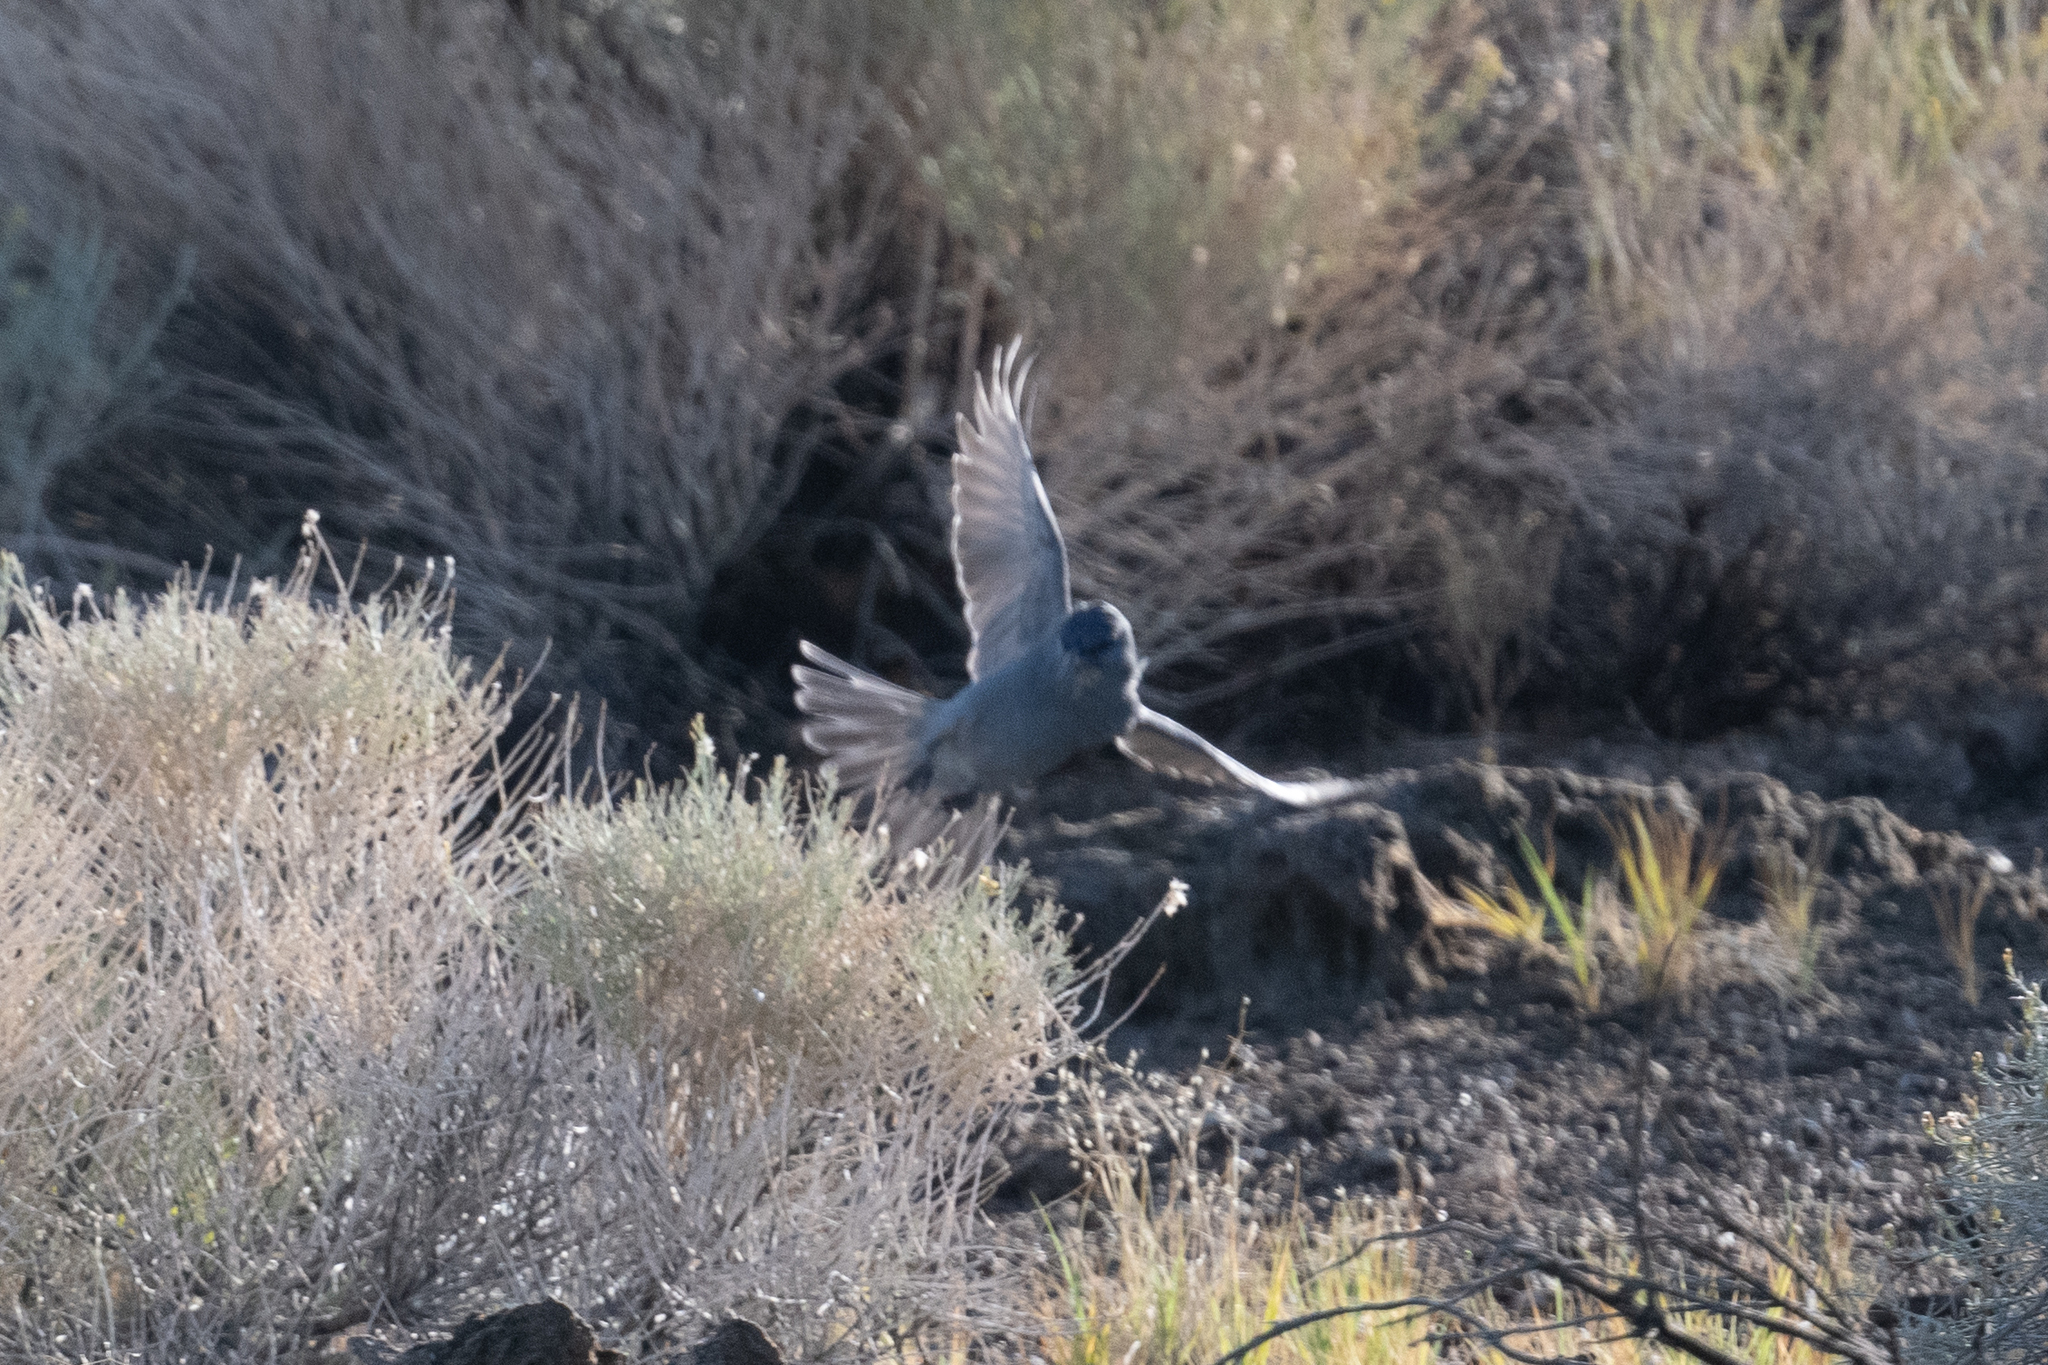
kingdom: Animalia
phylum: Chordata
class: Aves
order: Passeriformes
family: Corvidae
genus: Gymnorhinus
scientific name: Gymnorhinus cyanocephalus
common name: Pinyon jay
